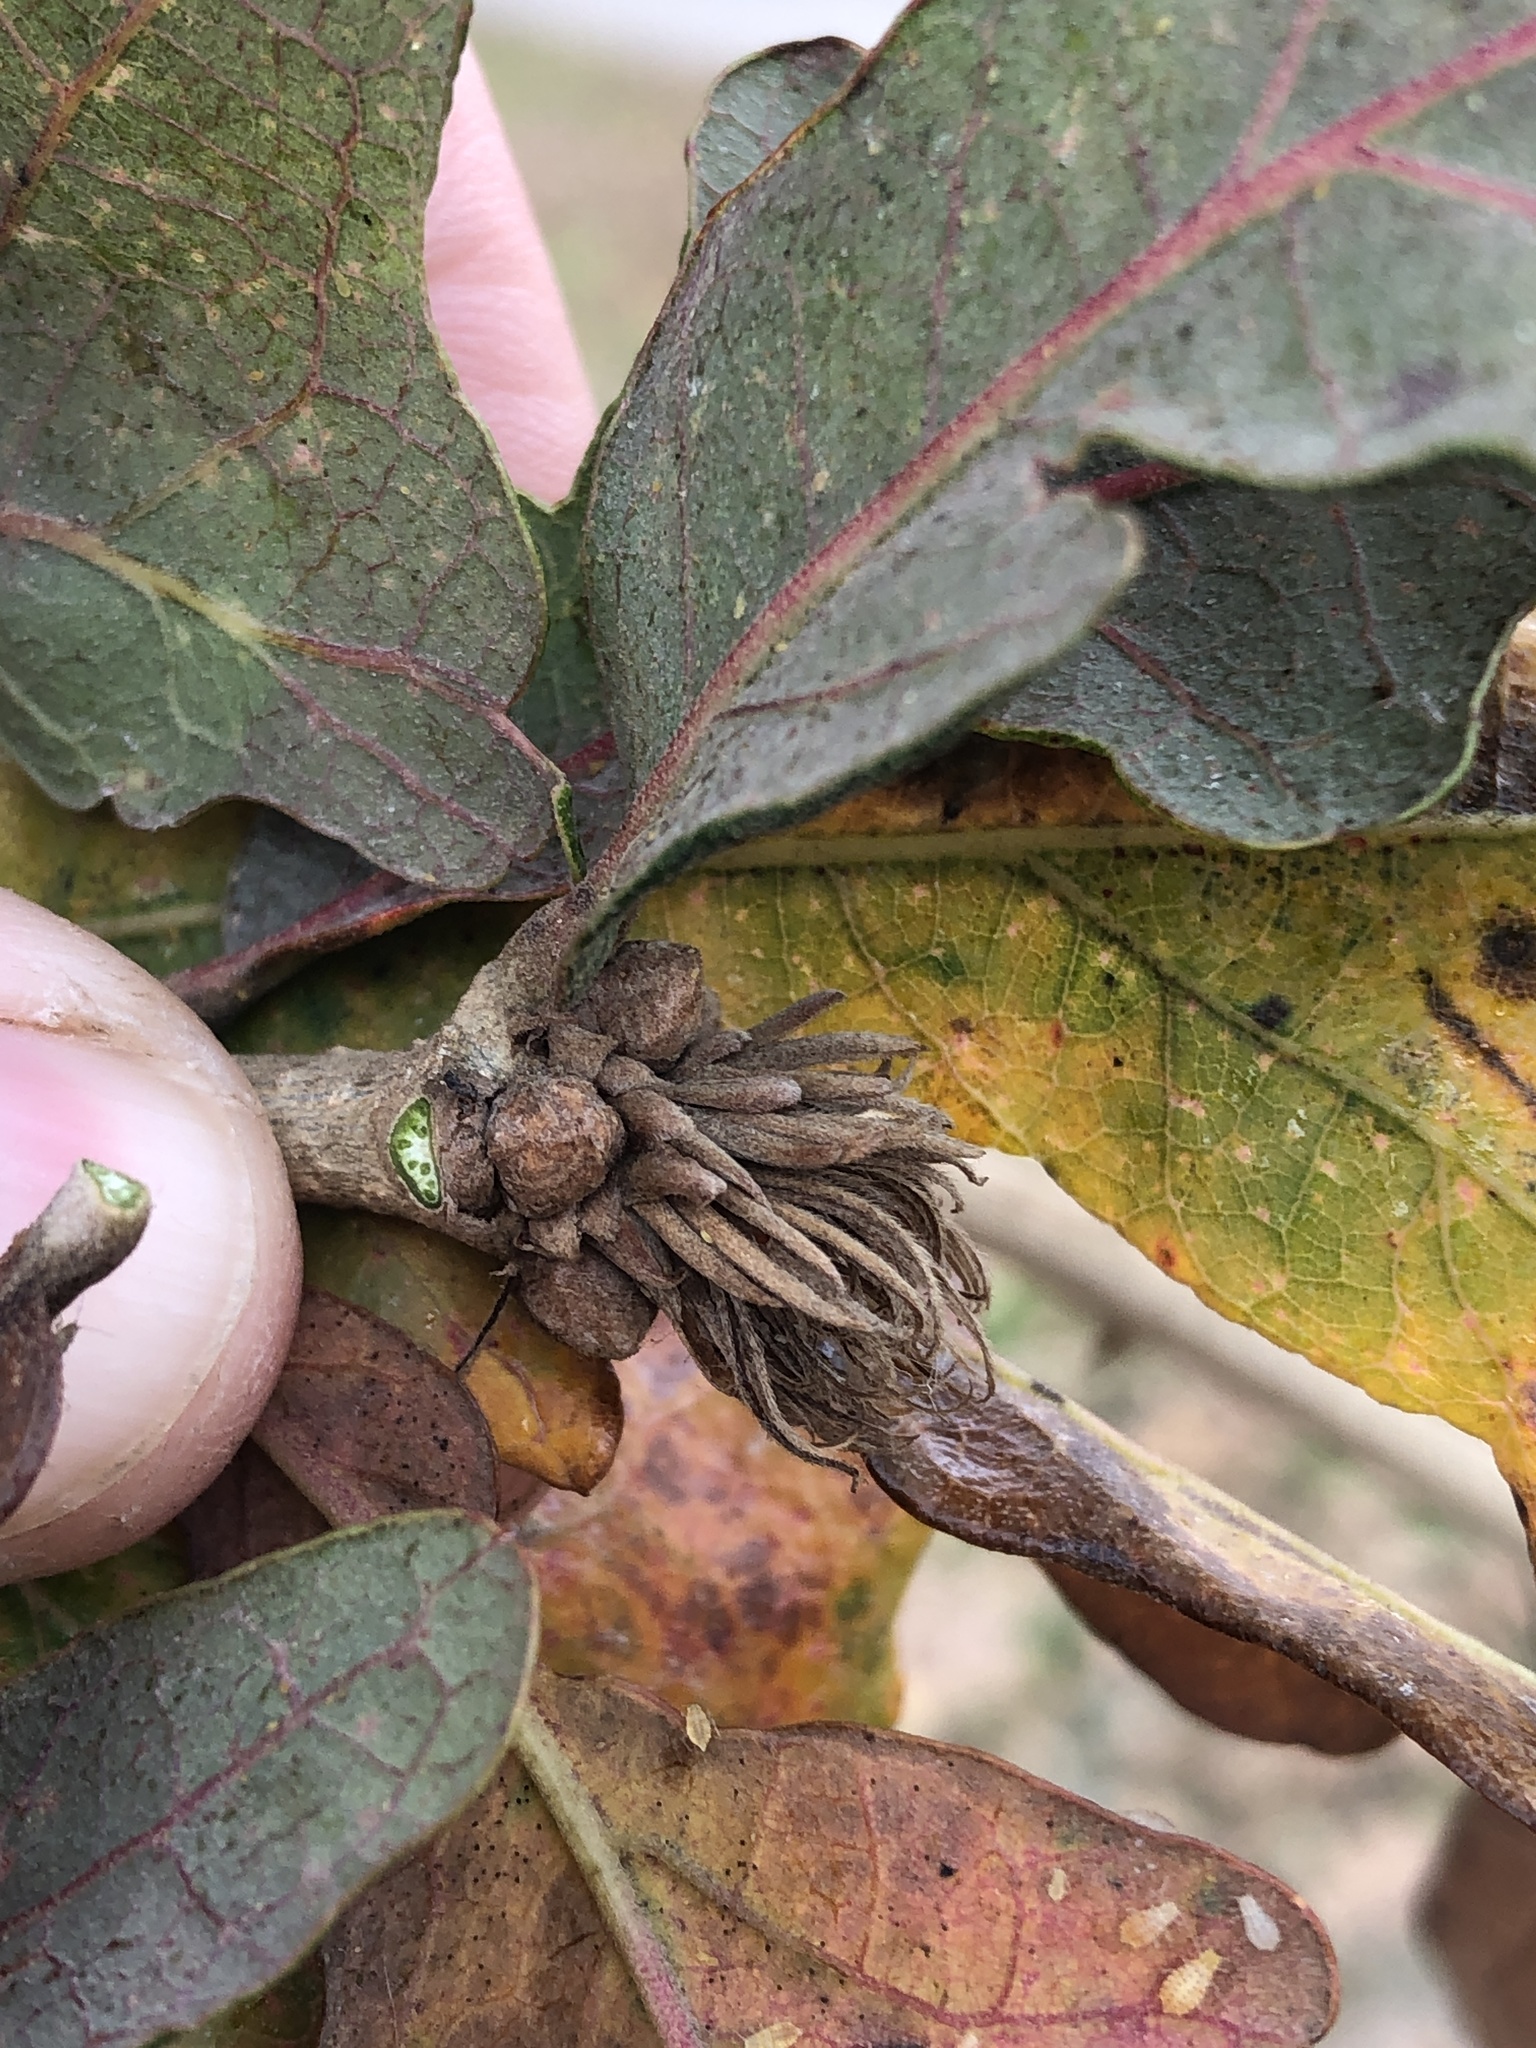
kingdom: Animalia
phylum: Arthropoda
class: Insecta
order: Hymenoptera
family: Cynipidae
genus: Andricus
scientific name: Andricus
